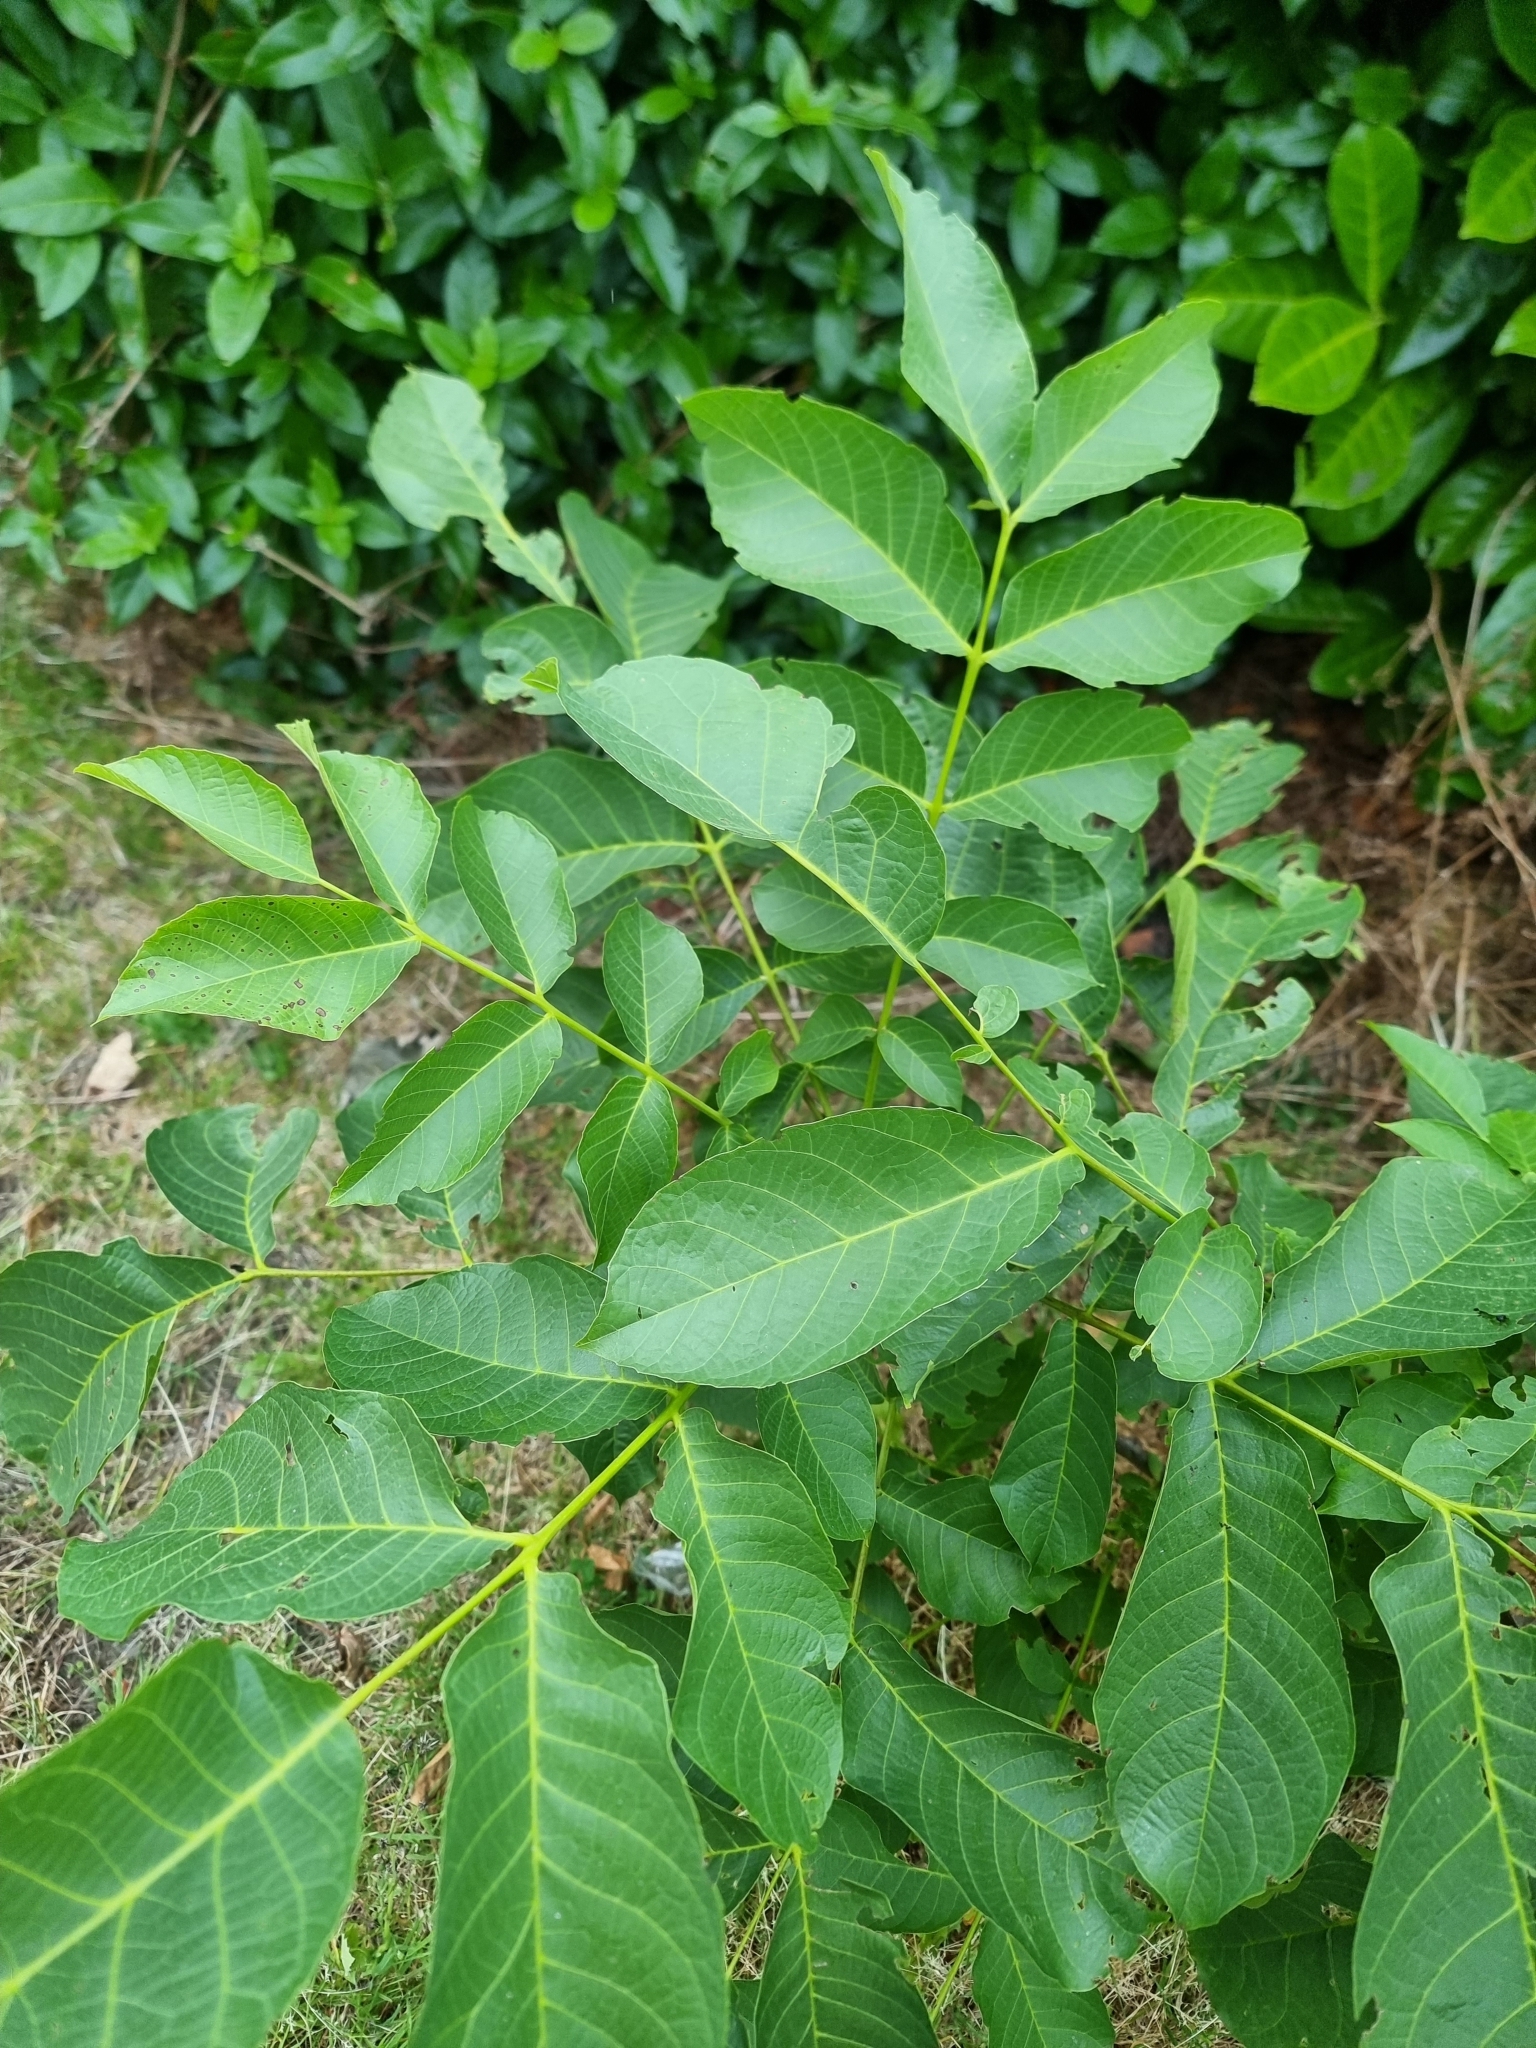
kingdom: Plantae
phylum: Tracheophyta
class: Magnoliopsida
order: Fagales
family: Juglandaceae
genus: Juglans
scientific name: Juglans regia
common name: Walnut
